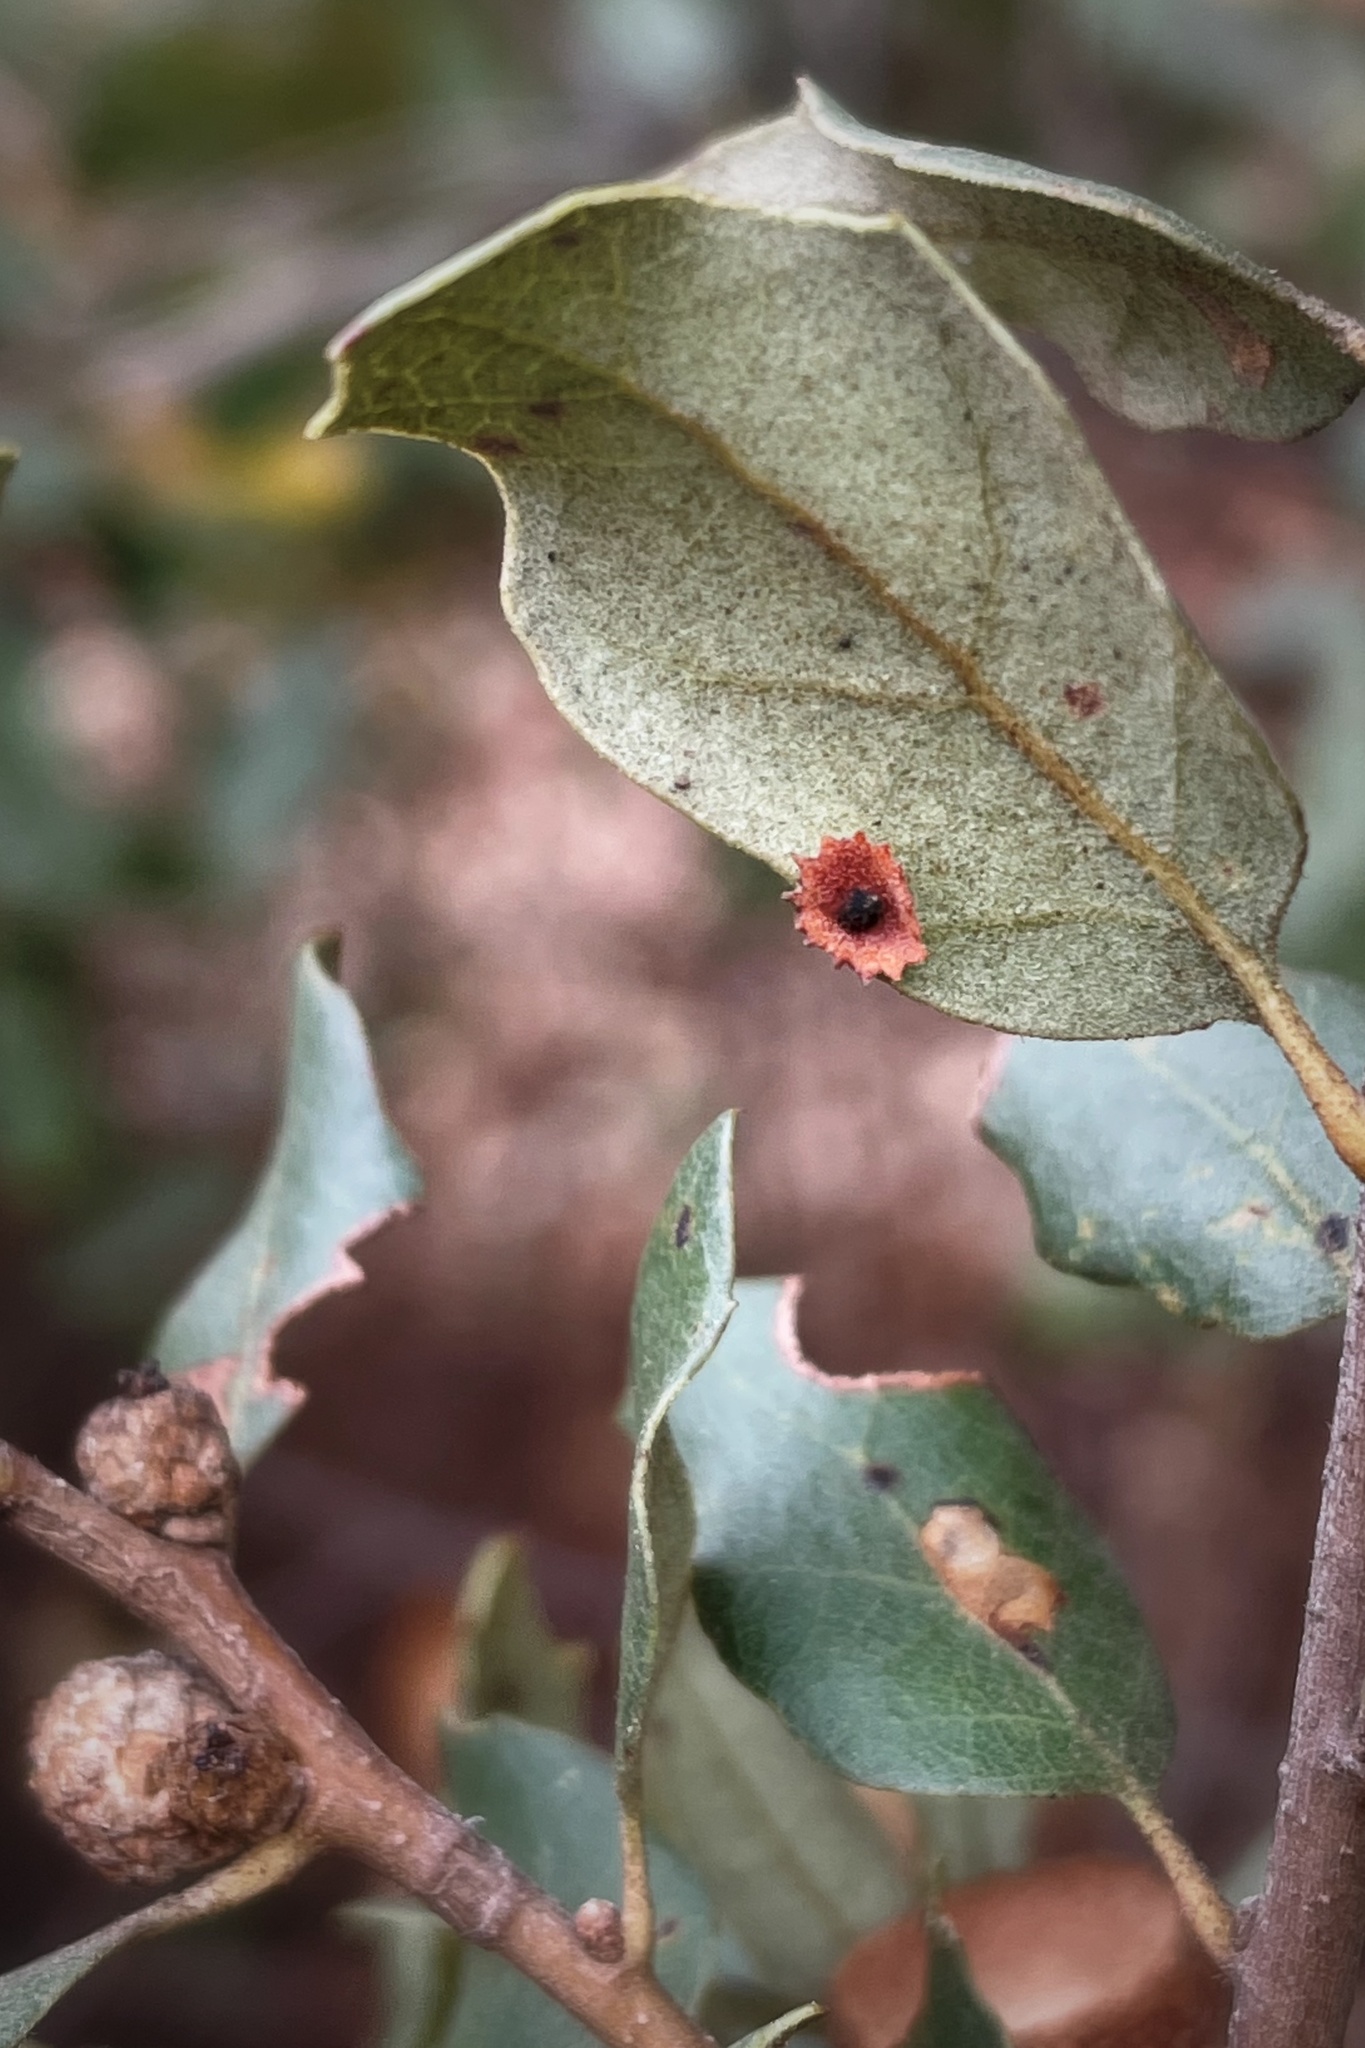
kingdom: Animalia
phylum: Arthropoda
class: Insecta
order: Hymenoptera
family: Cynipidae
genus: Andricus
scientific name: Andricus
